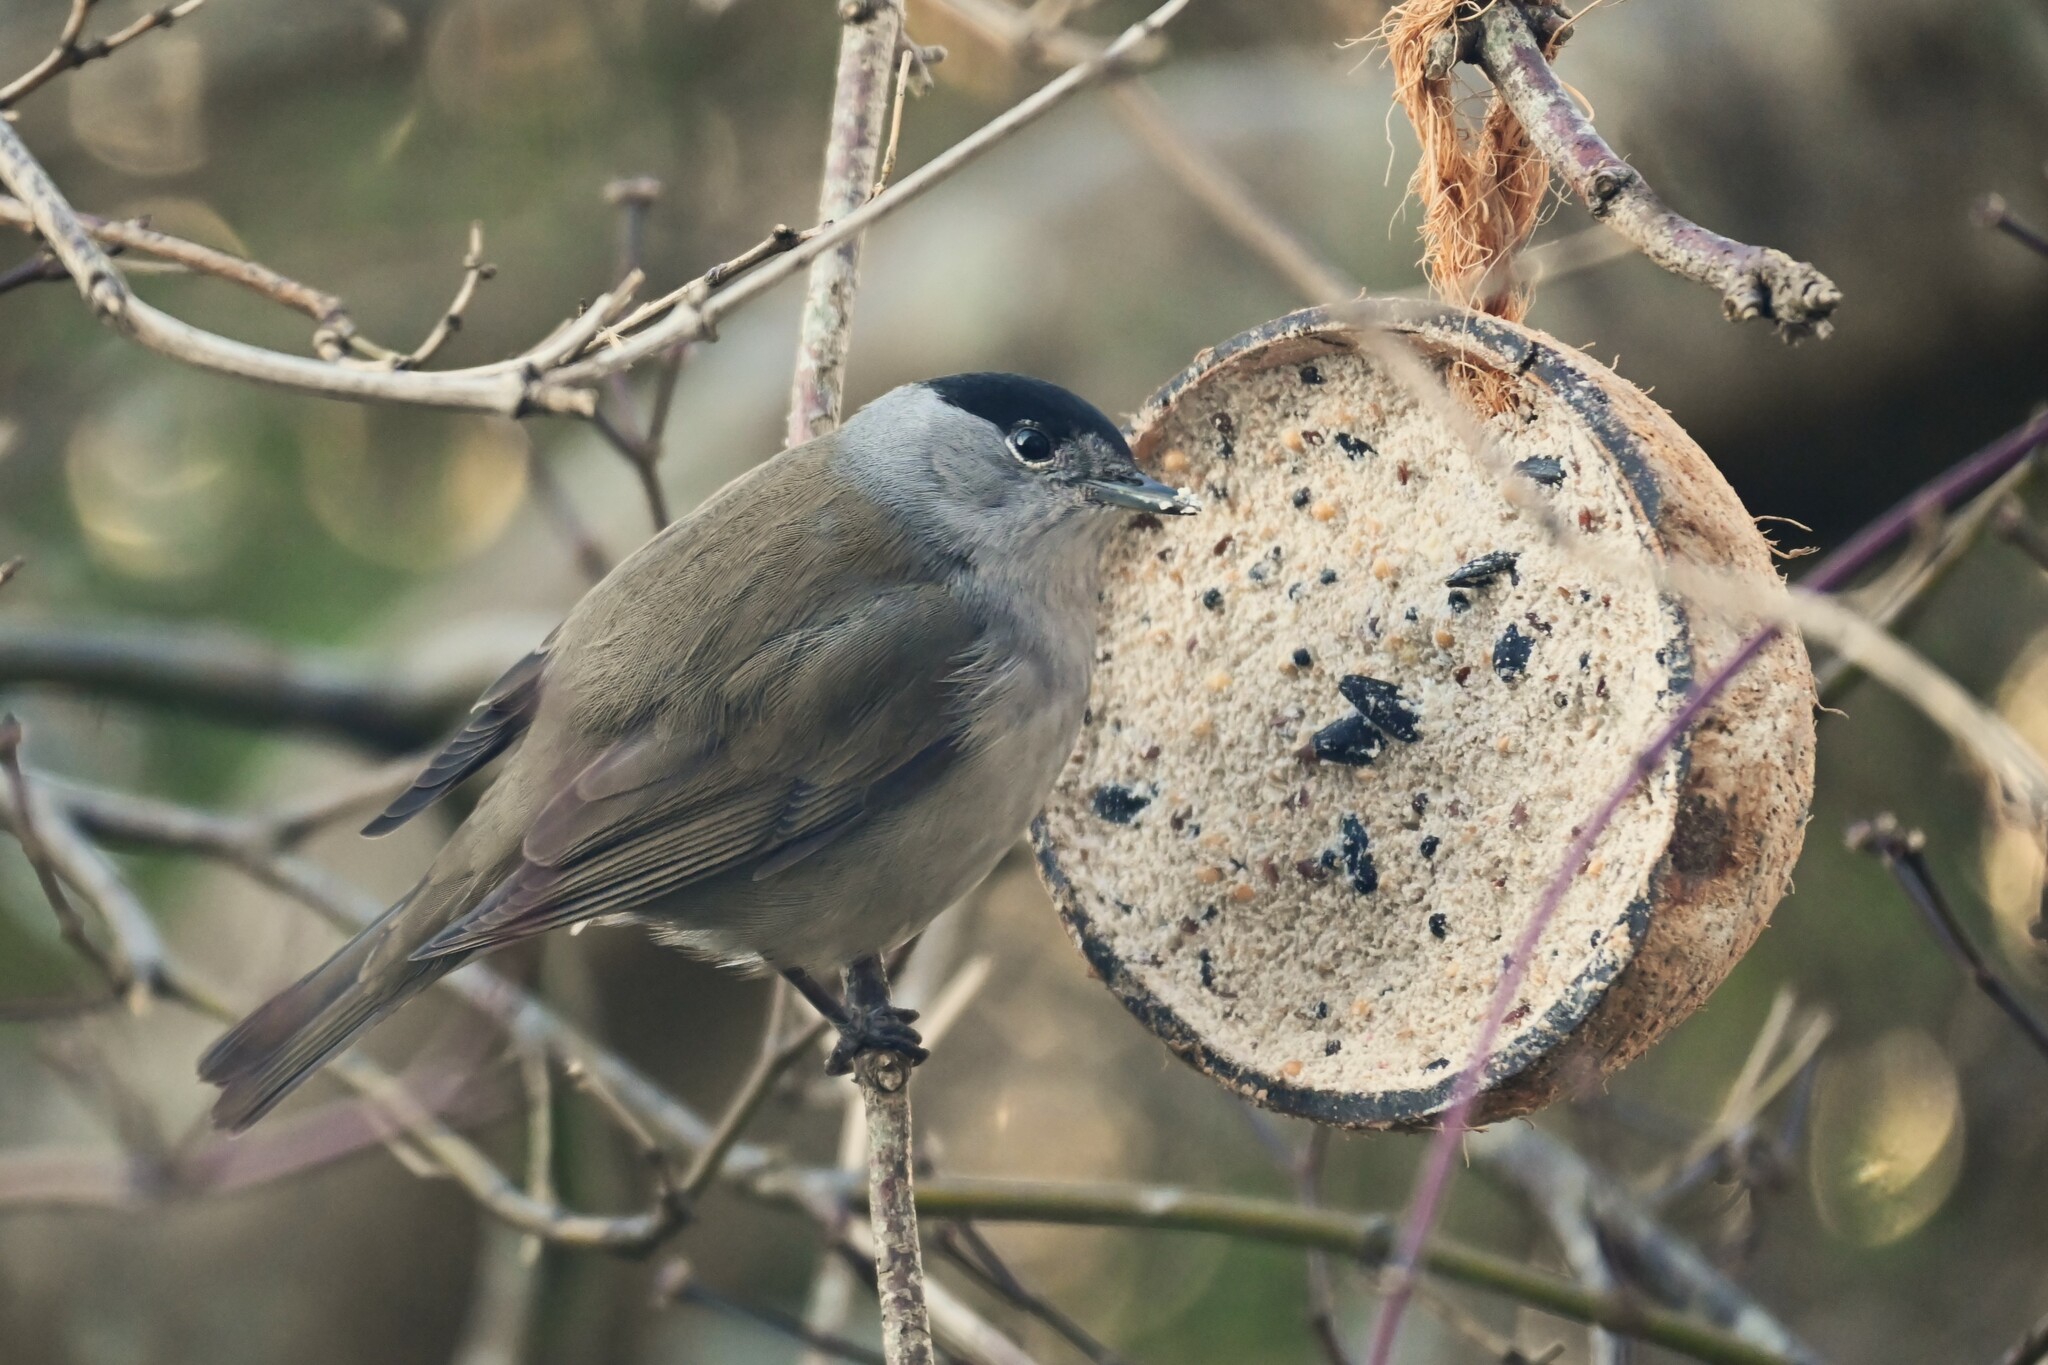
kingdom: Animalia
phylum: Chordata
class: Aves
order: Passeriformes
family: Sylviidae
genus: Sylvia
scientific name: Sylvia atricapilla
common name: Eurasian blackcap
